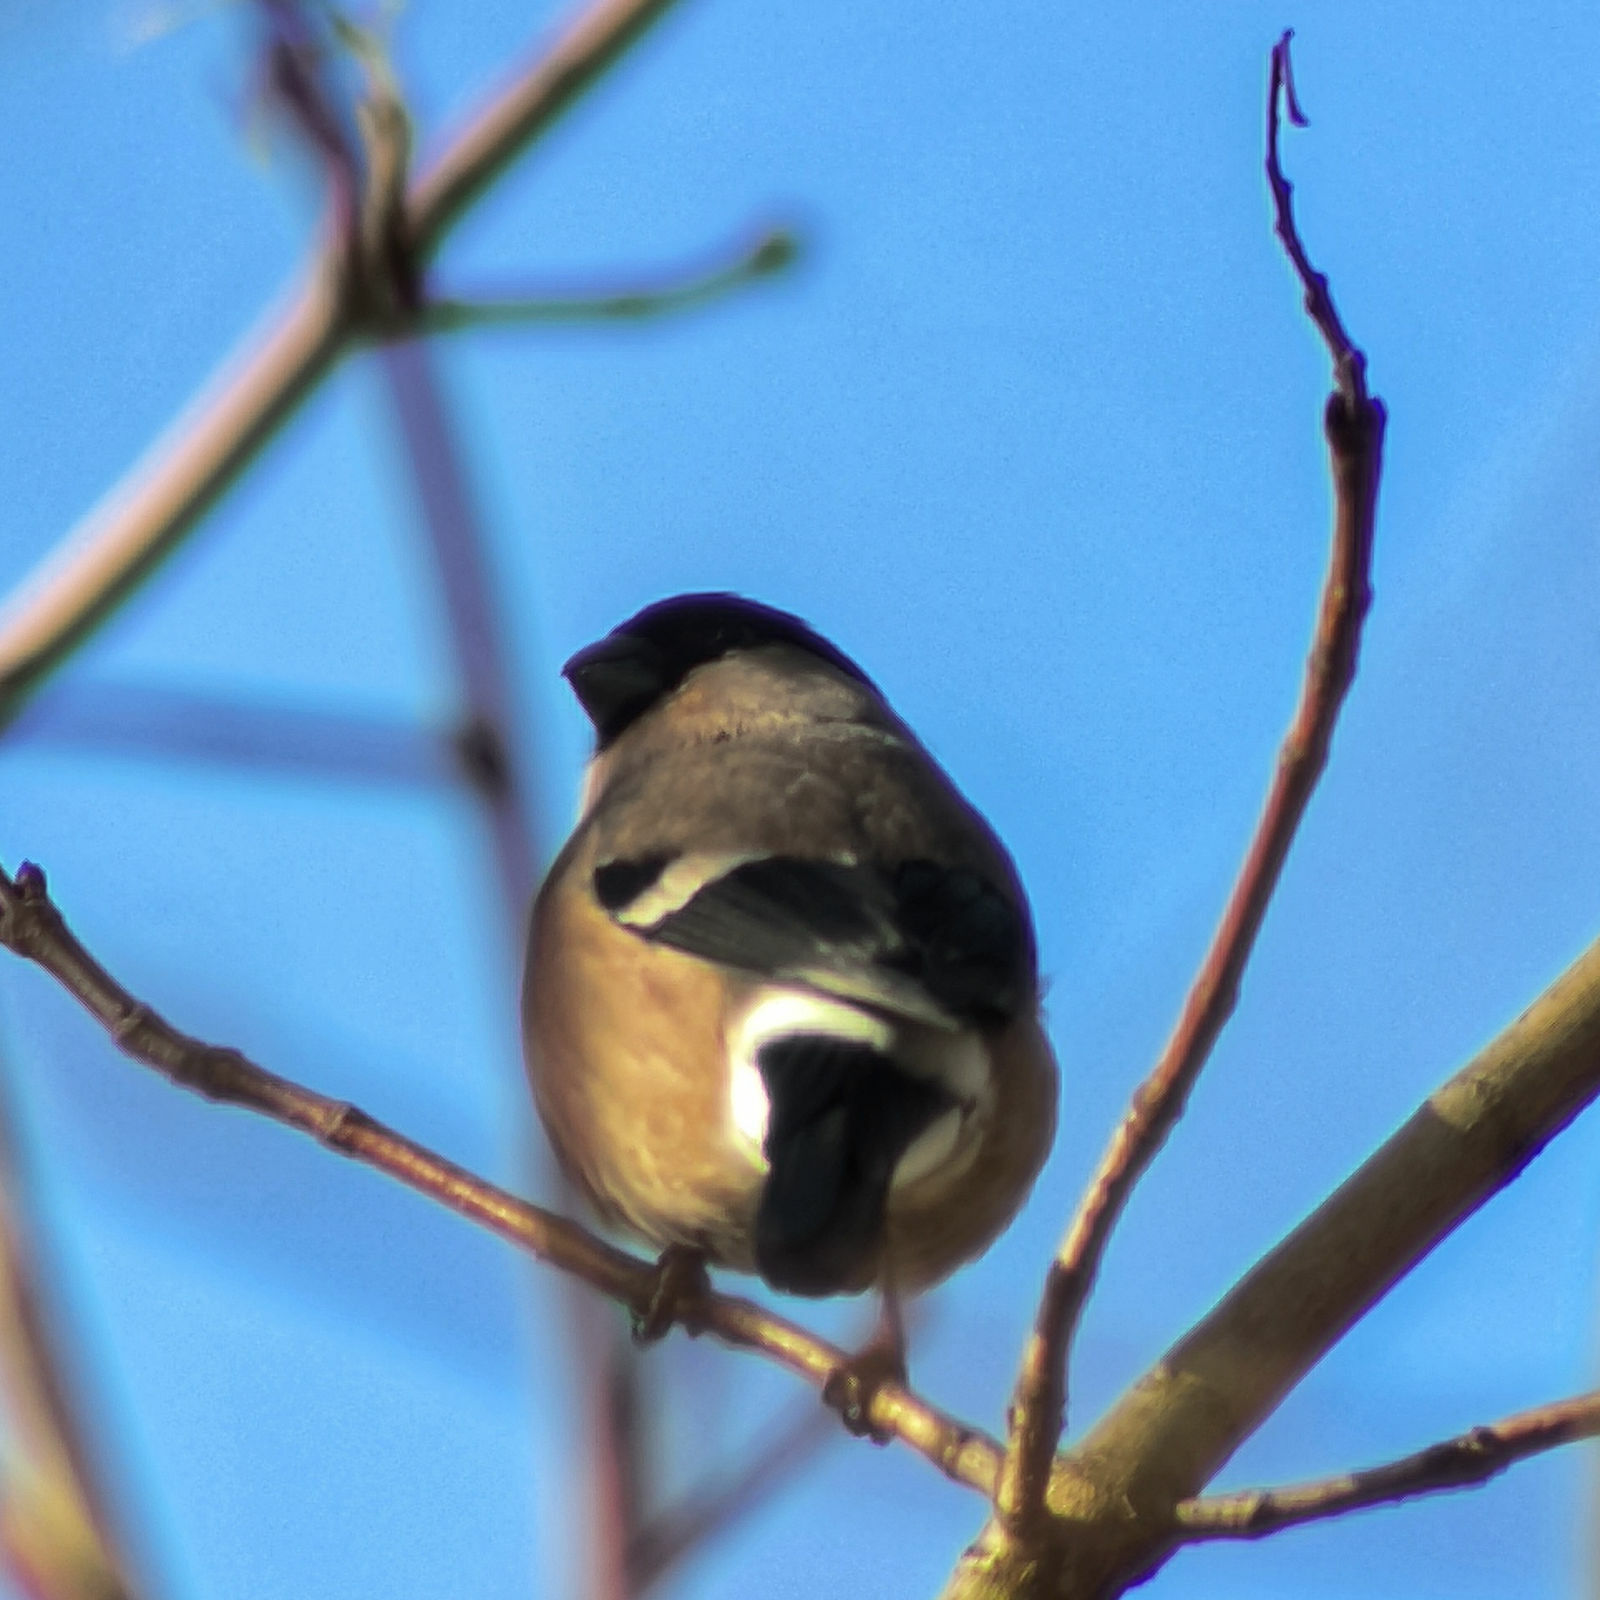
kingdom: Animalia
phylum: Chordata
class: Aves
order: Passeriformes
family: Fringillidae
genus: Pyrrhula
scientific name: Pyrrhula pyrrhula
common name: Eurasian bullfinch
